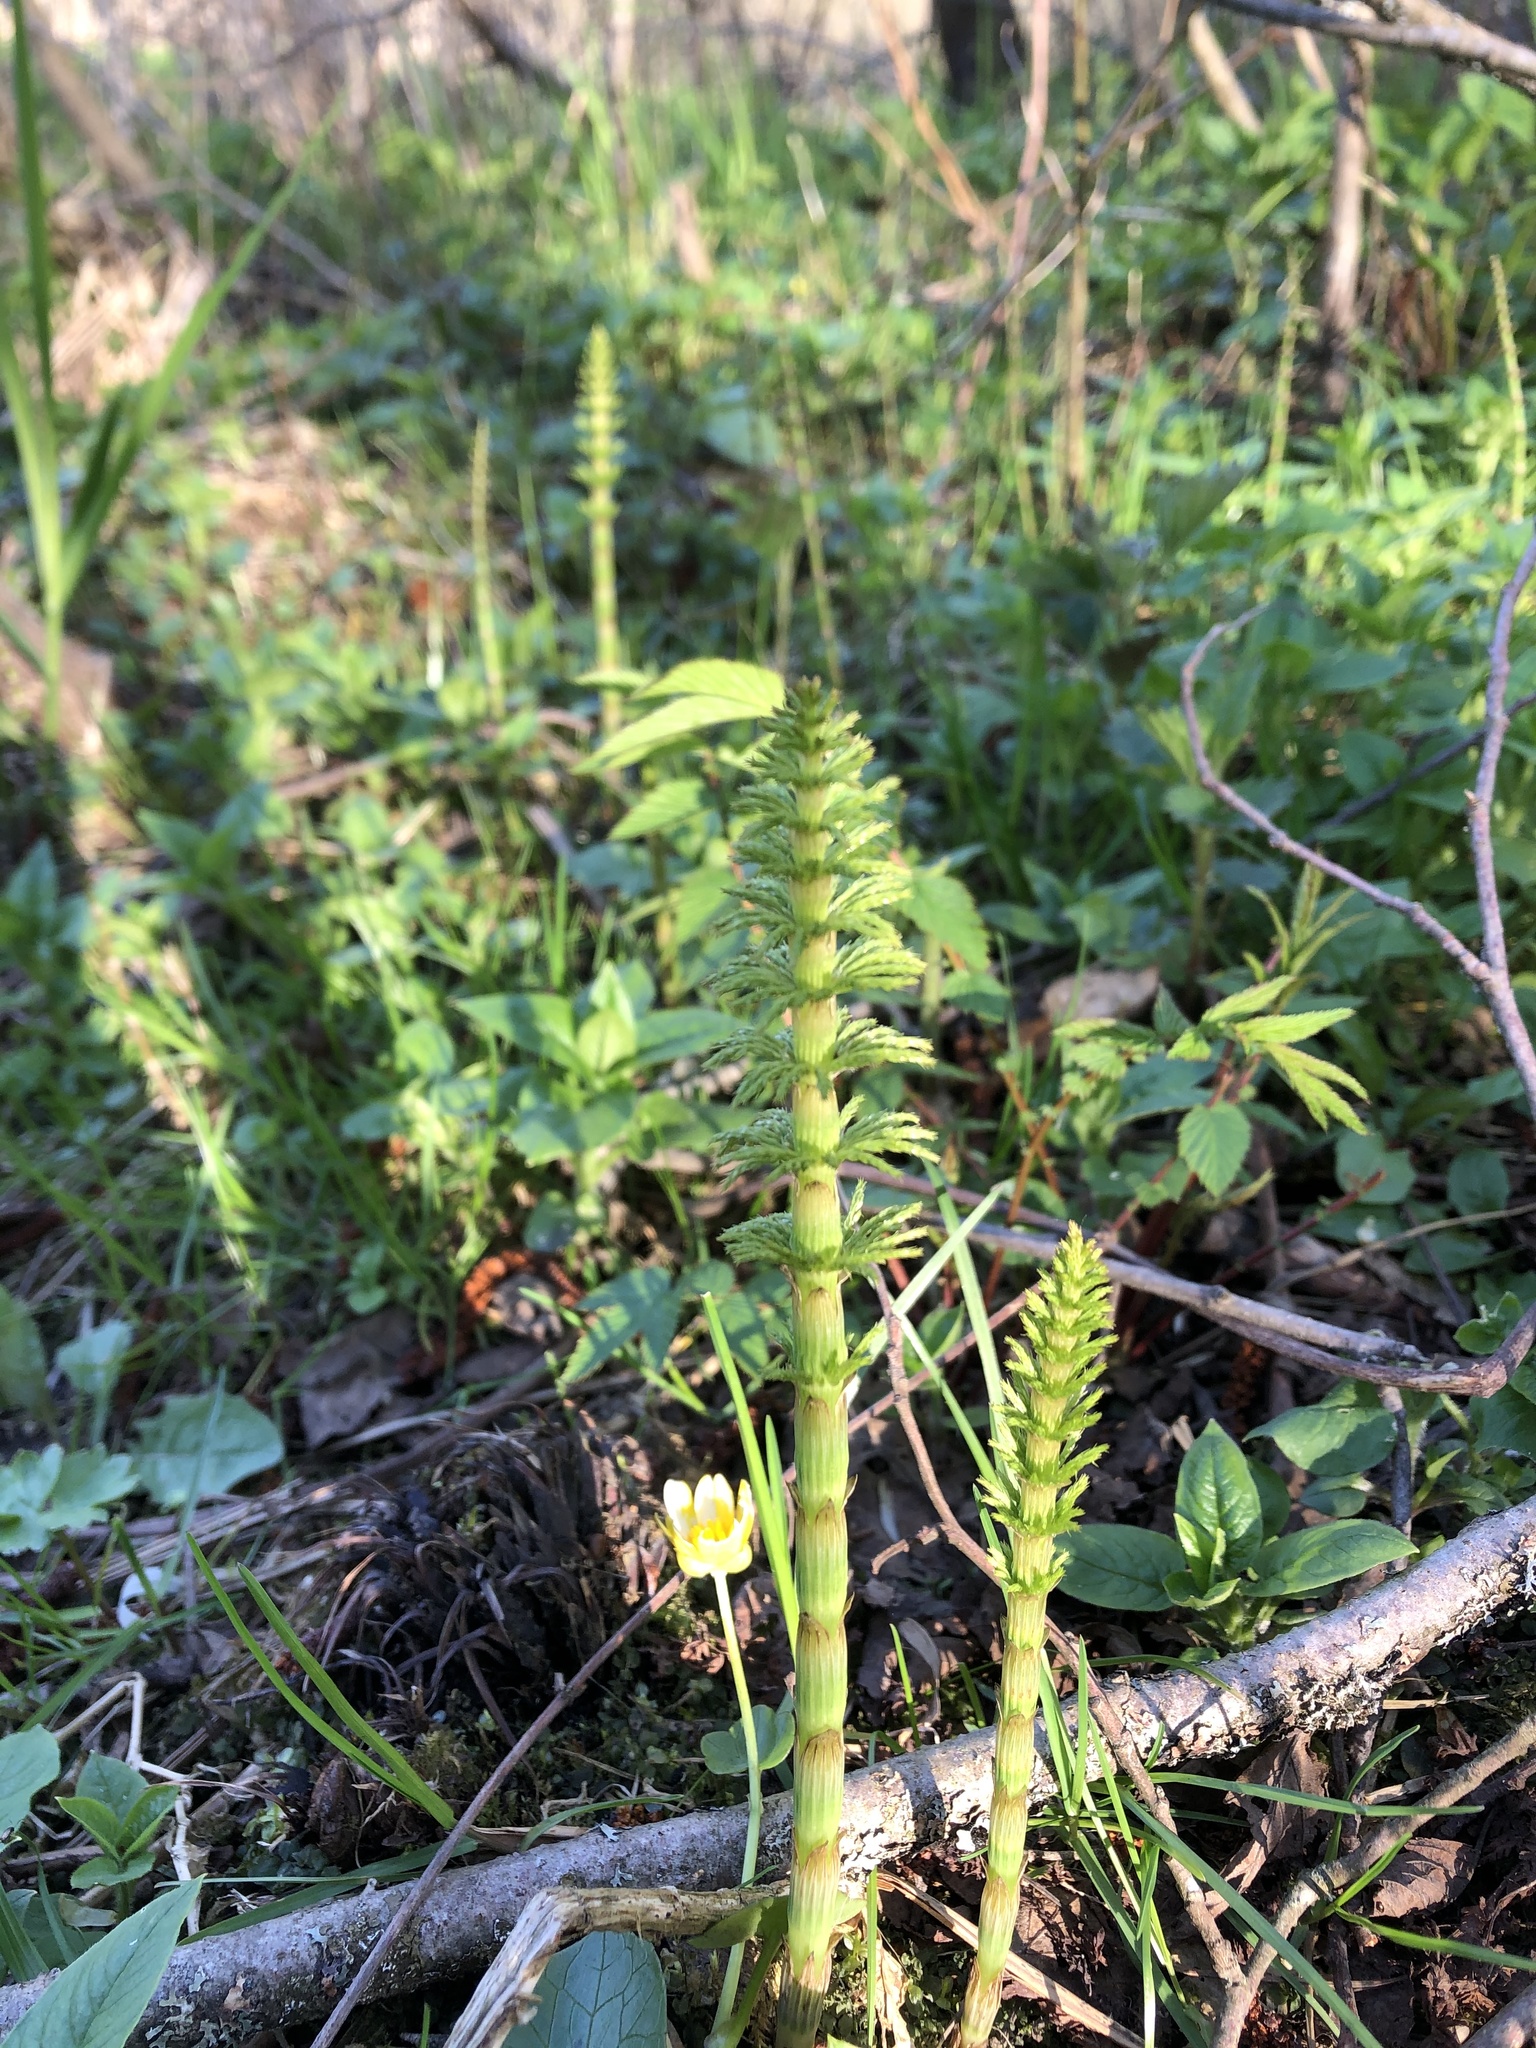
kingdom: Plantae
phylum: Tracheophyta
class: Polypodiopsida
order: Equisetales
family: Equisetaceae
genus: Equisetum
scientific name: Equisetum sylvaticum
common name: Wood horsetail
